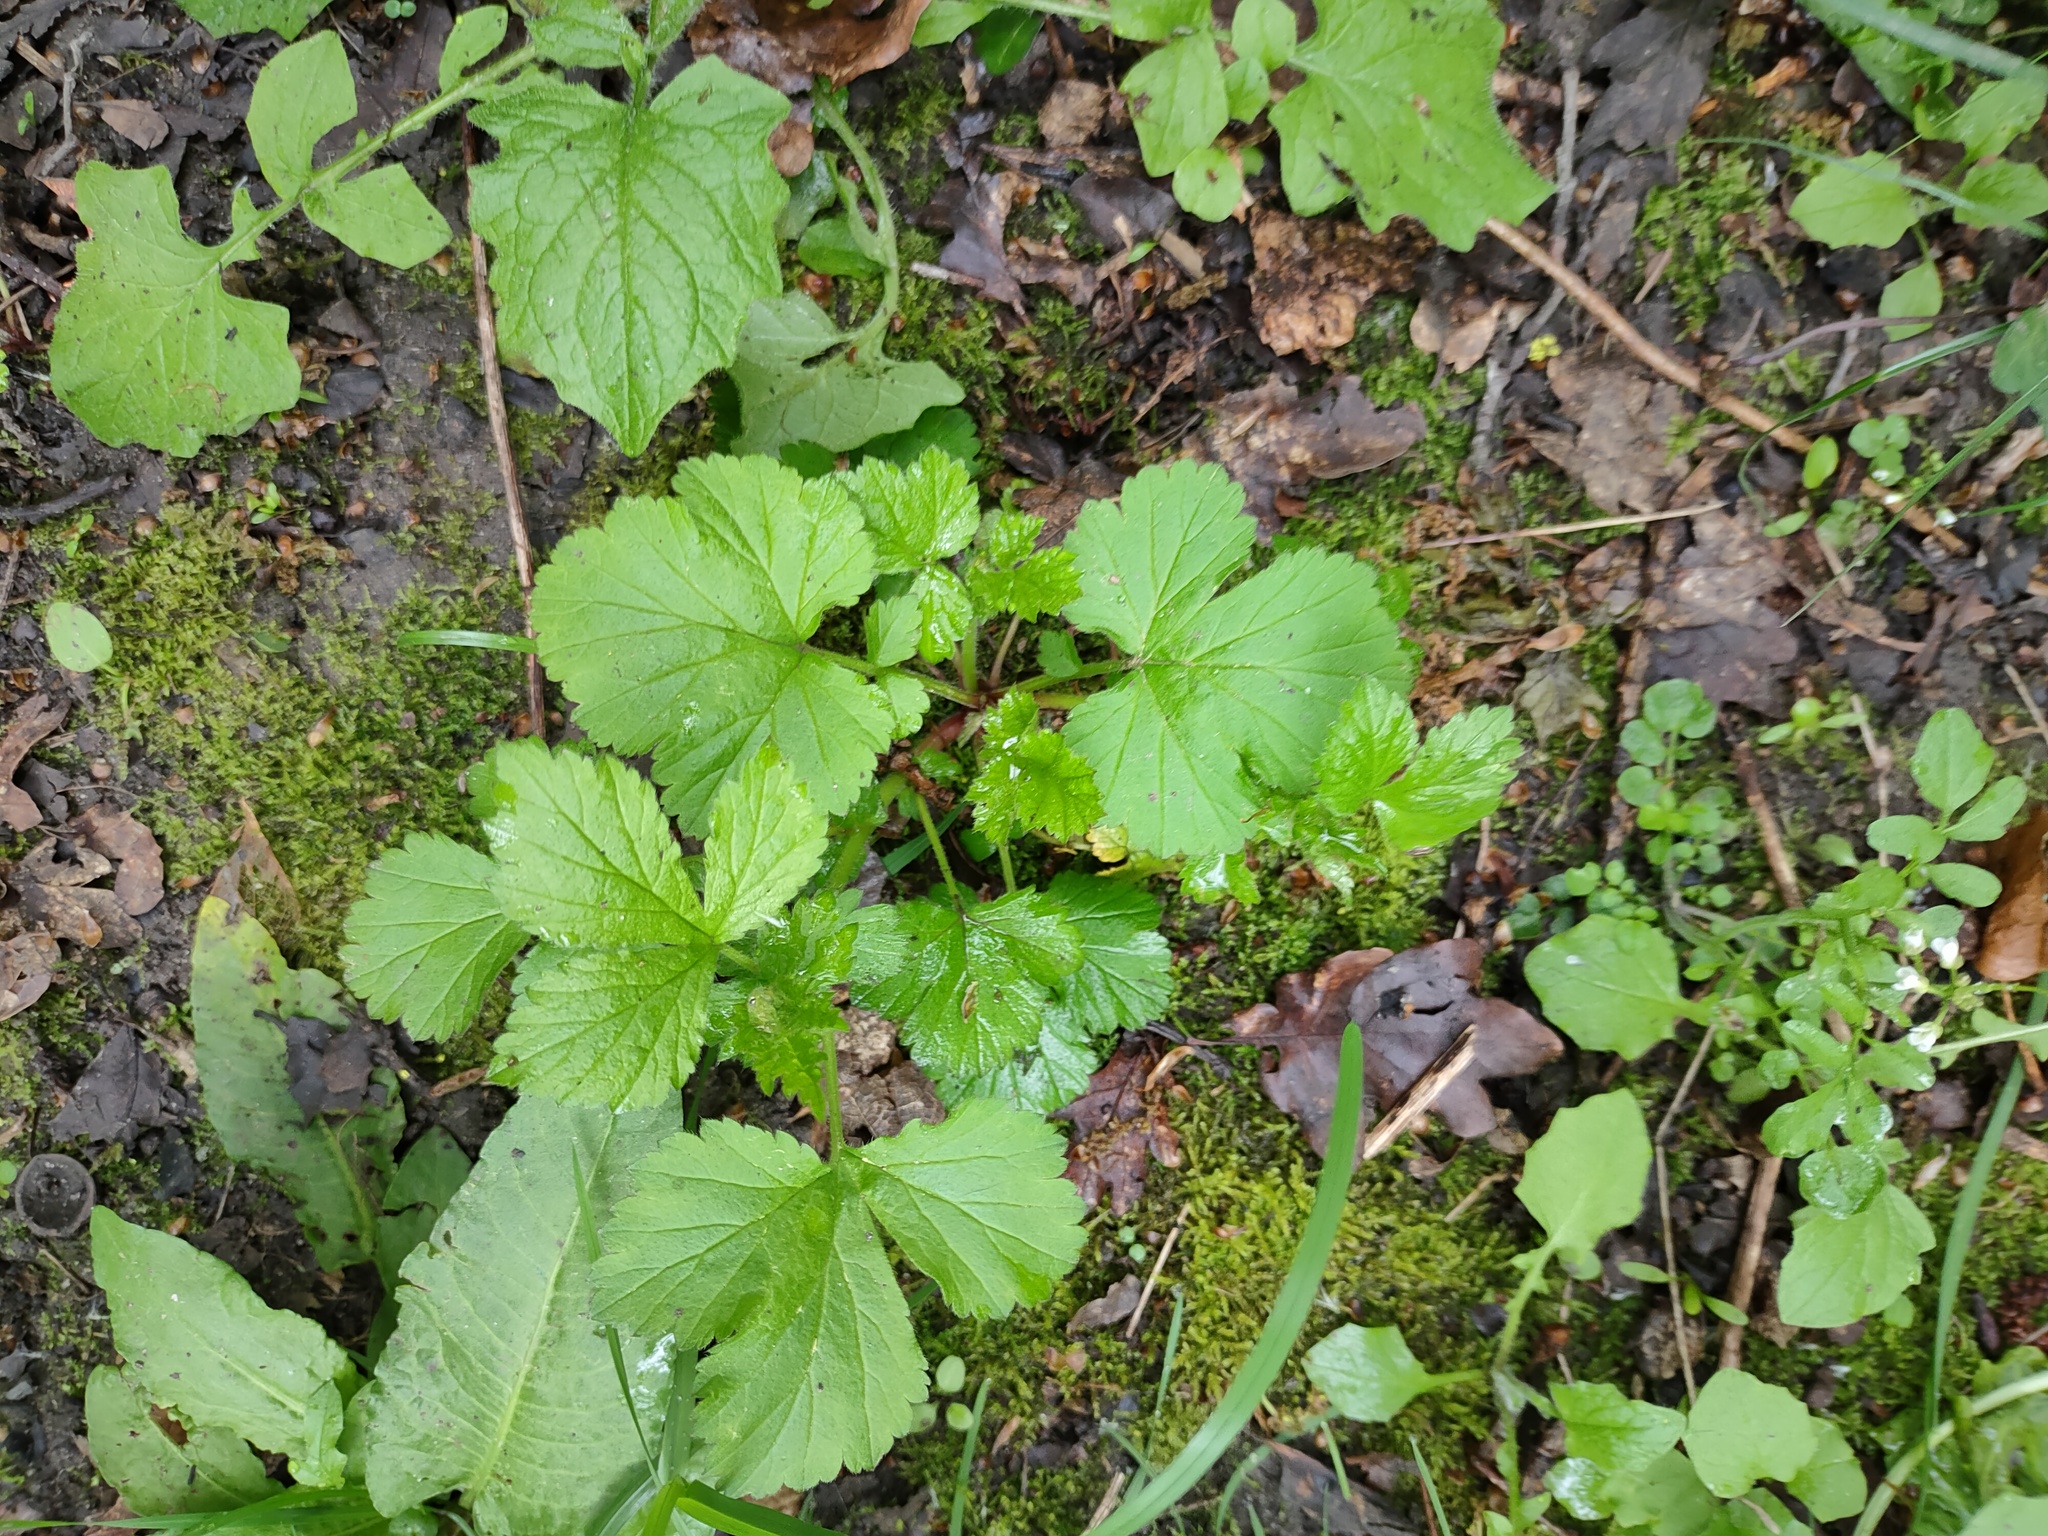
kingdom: Plantae
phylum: Tracheophyta
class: Magnoliopsida
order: Rosales
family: Rosaceae
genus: Geum
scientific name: Geum urbanum
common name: Wood avens
